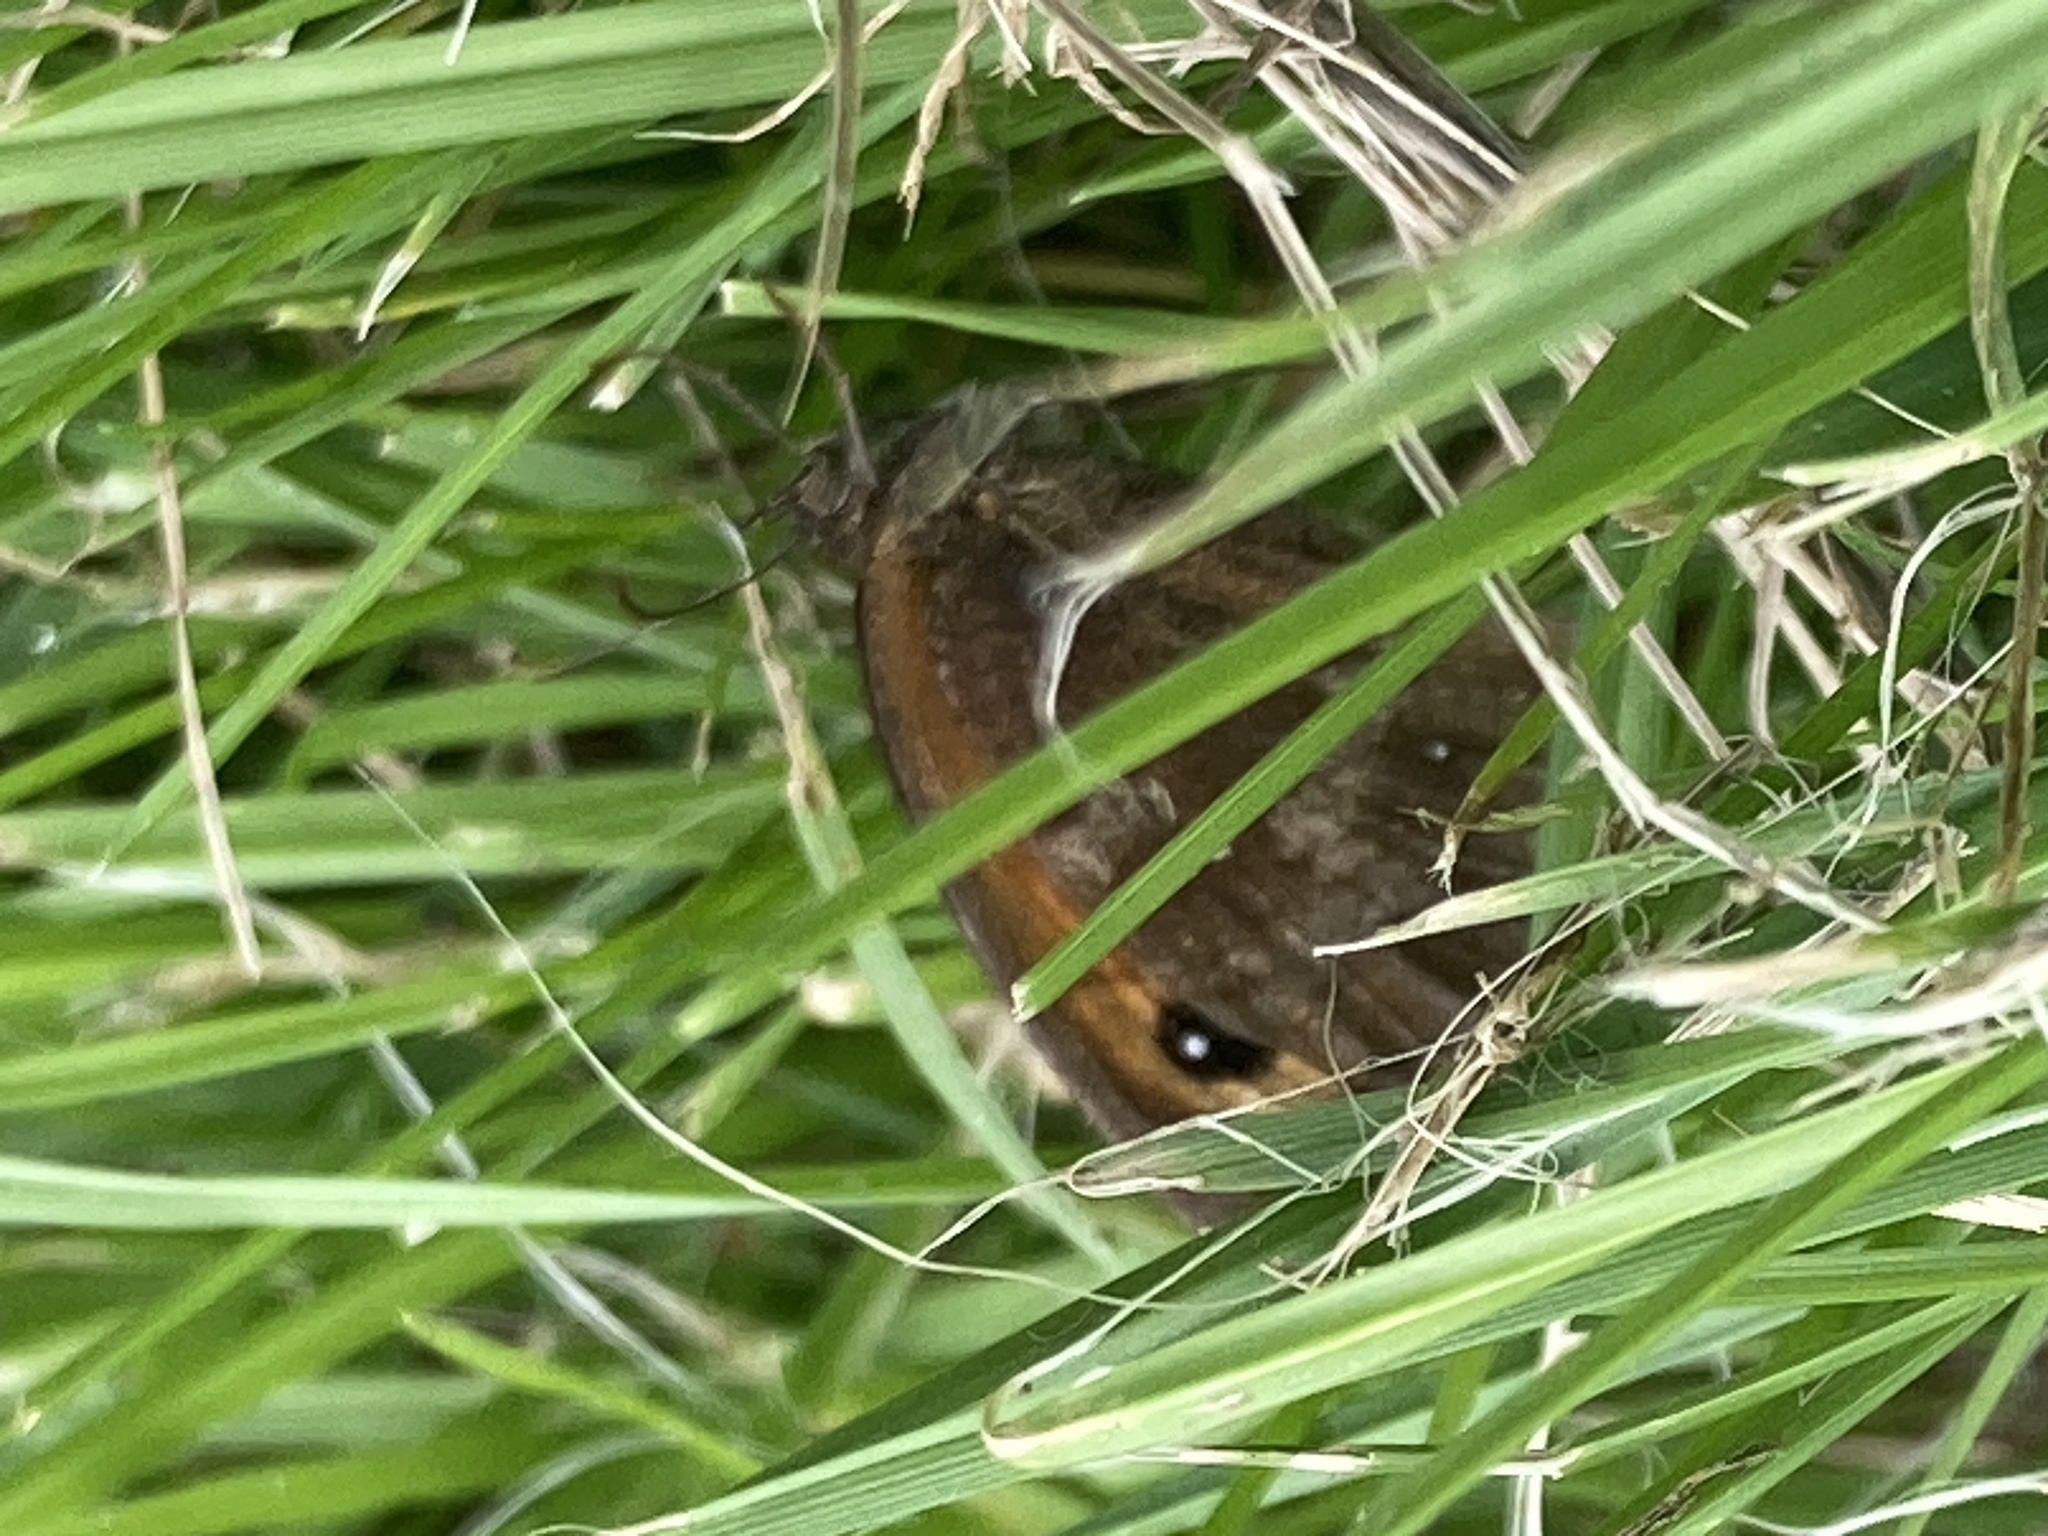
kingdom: Animalia
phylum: Arthropoda
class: Insecta
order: Lepidoptera
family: Nymphalidae
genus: Pyronia
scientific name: Pyronia tithonus
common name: Gatekeeper
